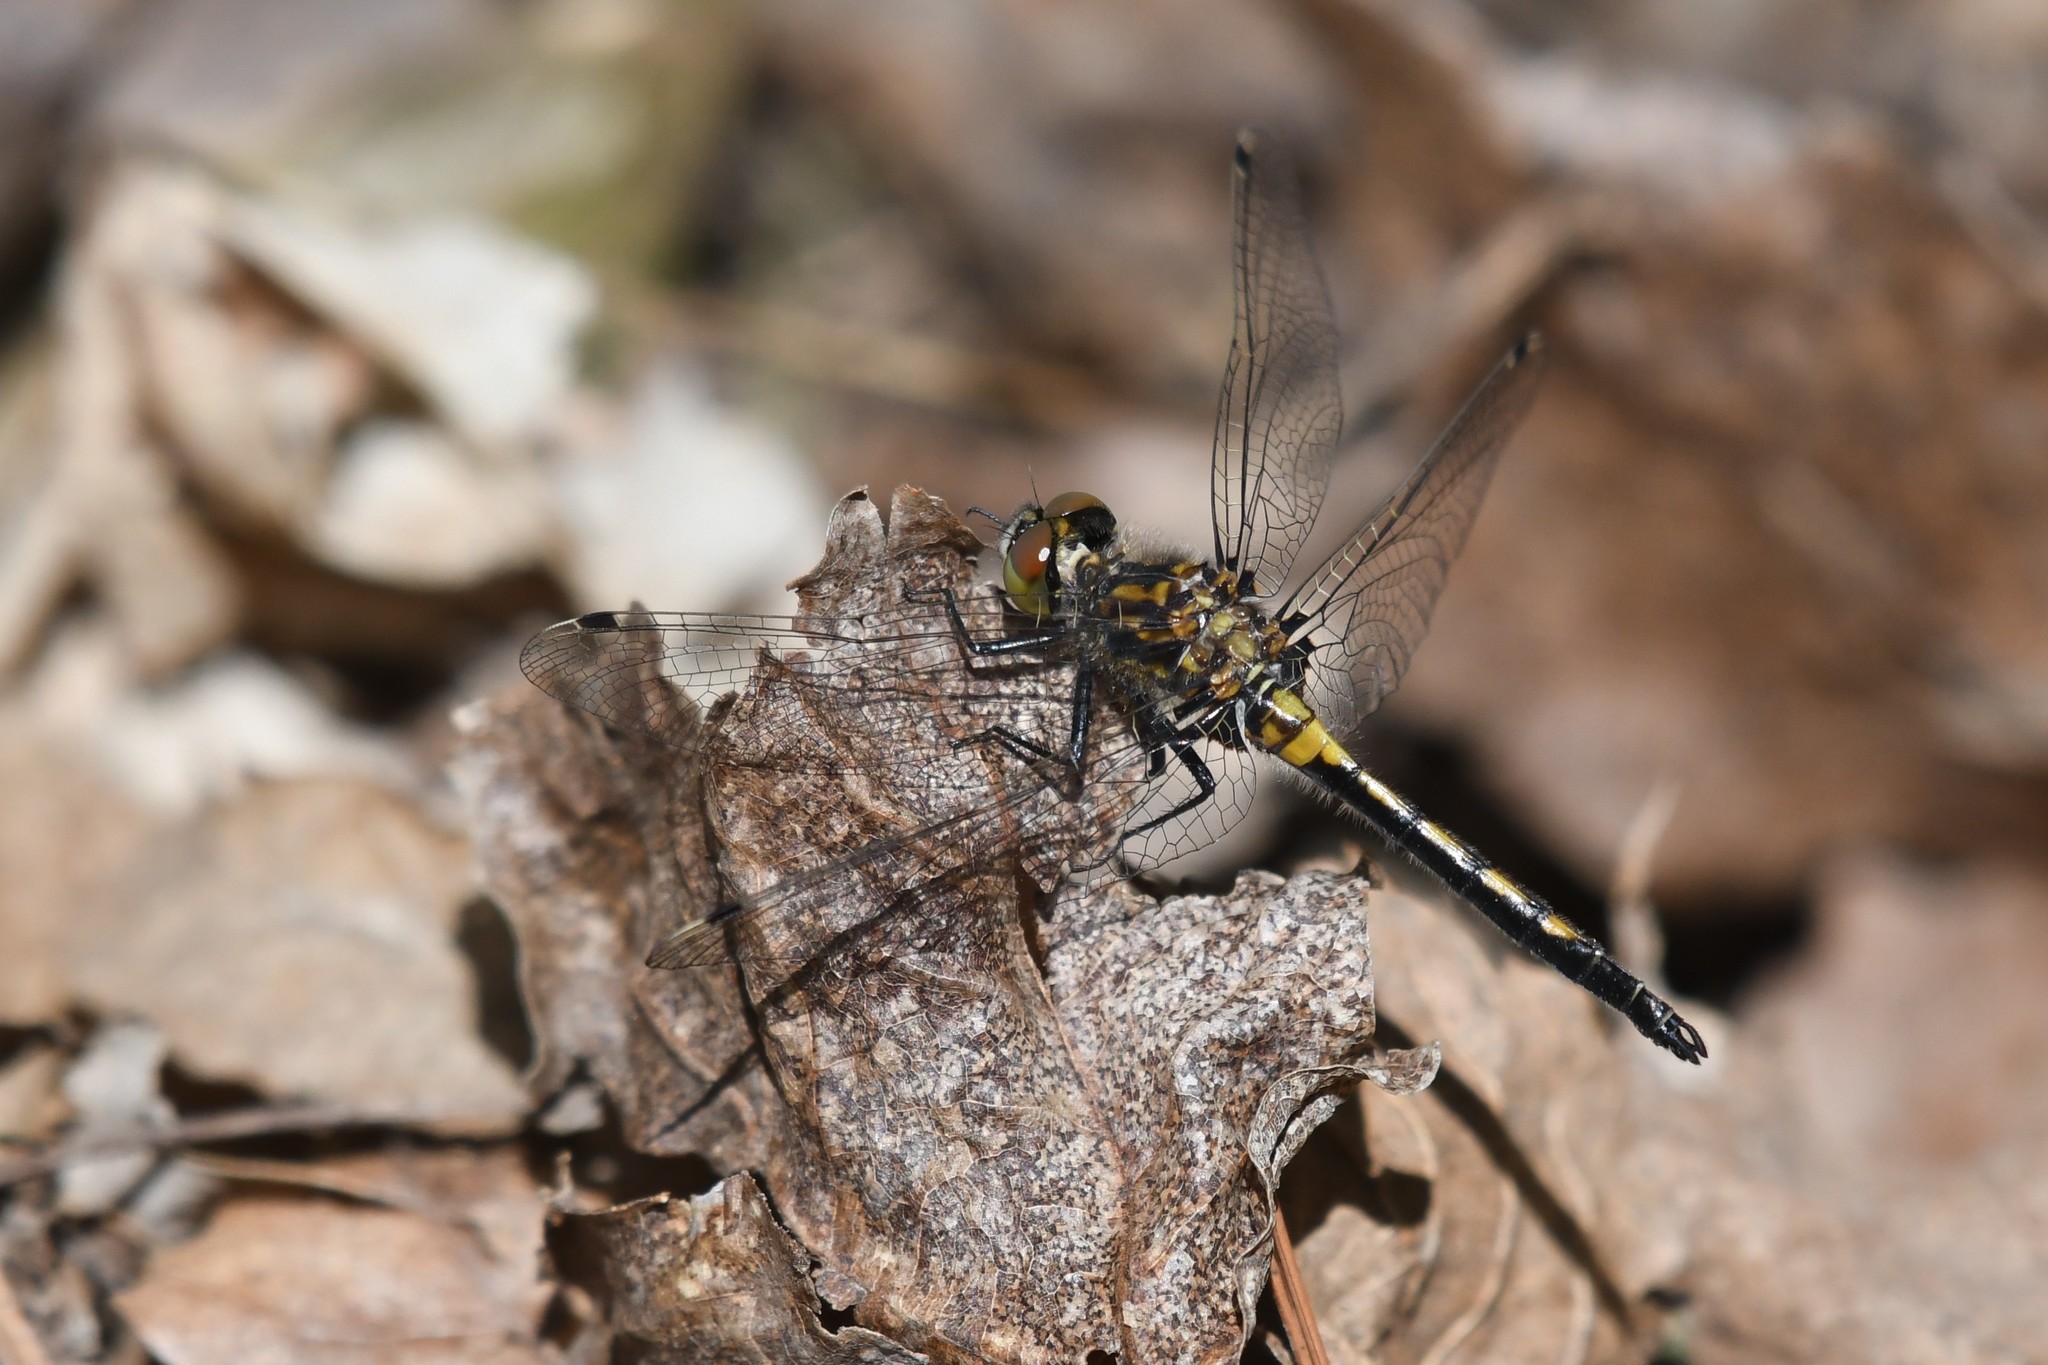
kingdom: Animalia
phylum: Arthropoda
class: Insecta
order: Odonata
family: Libellulidae
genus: Leucorrhinia
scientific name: Leucorrhinia hudsonica
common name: Hudsonian whiteface
